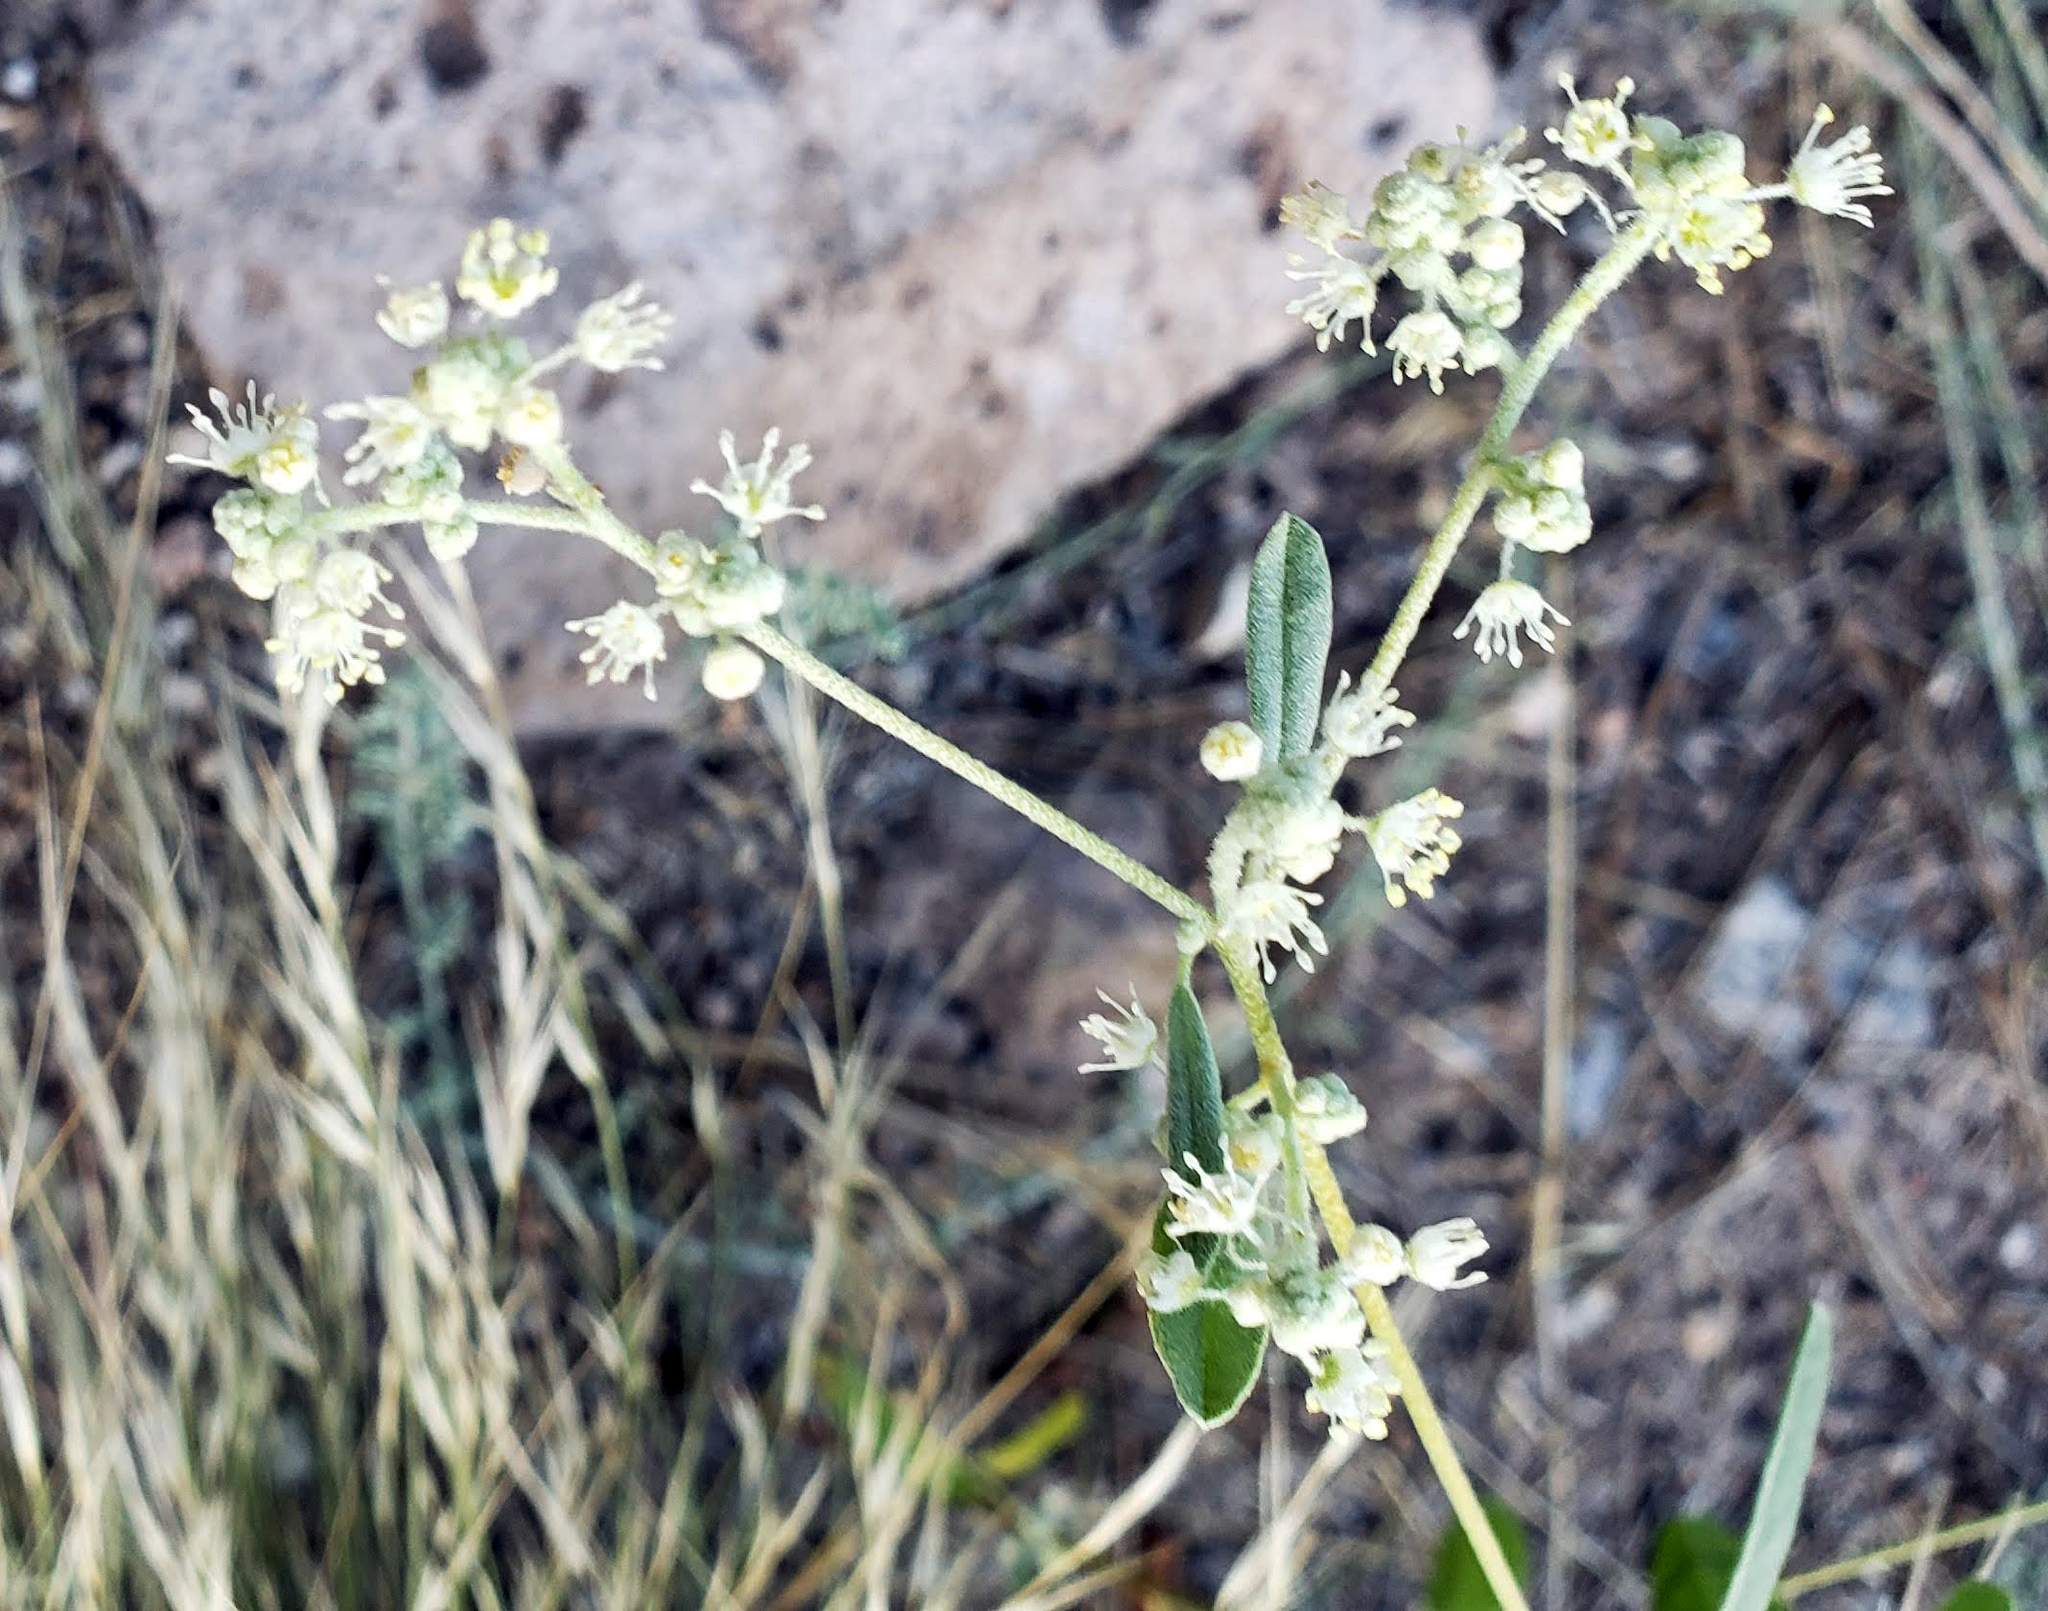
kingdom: Plantae
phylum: Tracheophyta
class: Magnoliopsida
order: Malpighiales
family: Euphorbiaceae
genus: Croton
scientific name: Croton texensis
